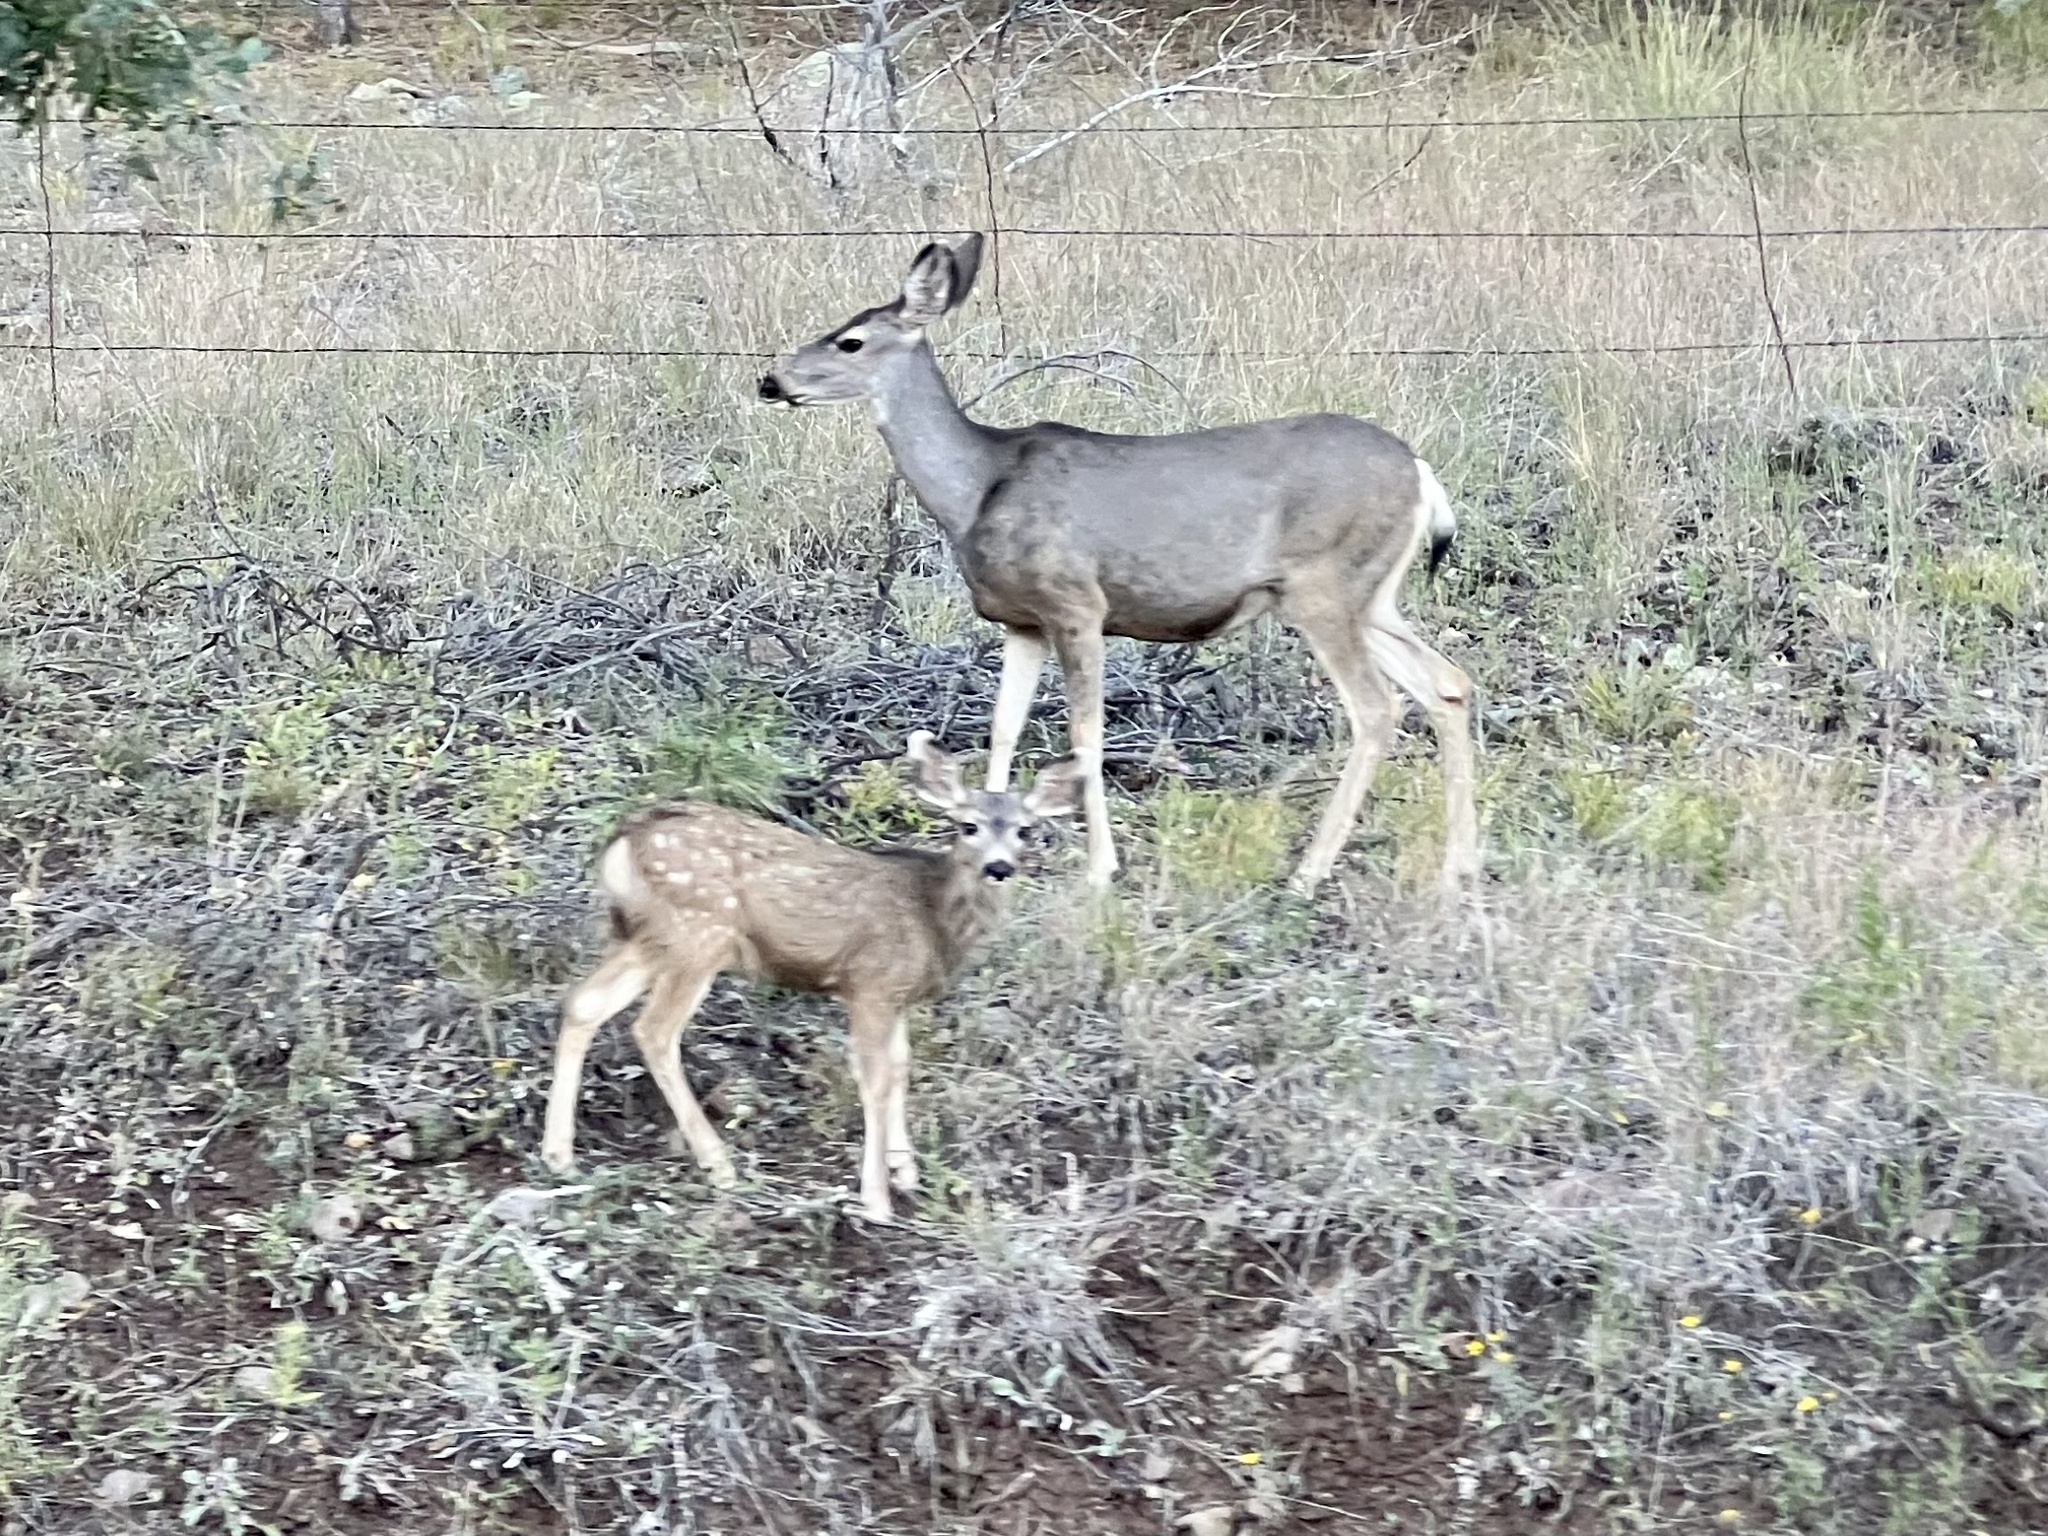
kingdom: Animalia
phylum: Chordata
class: Mammalia
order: Artiodactyla
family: Cervidae
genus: Odocoileus
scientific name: Odocoileus hemionus
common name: Mule deer
